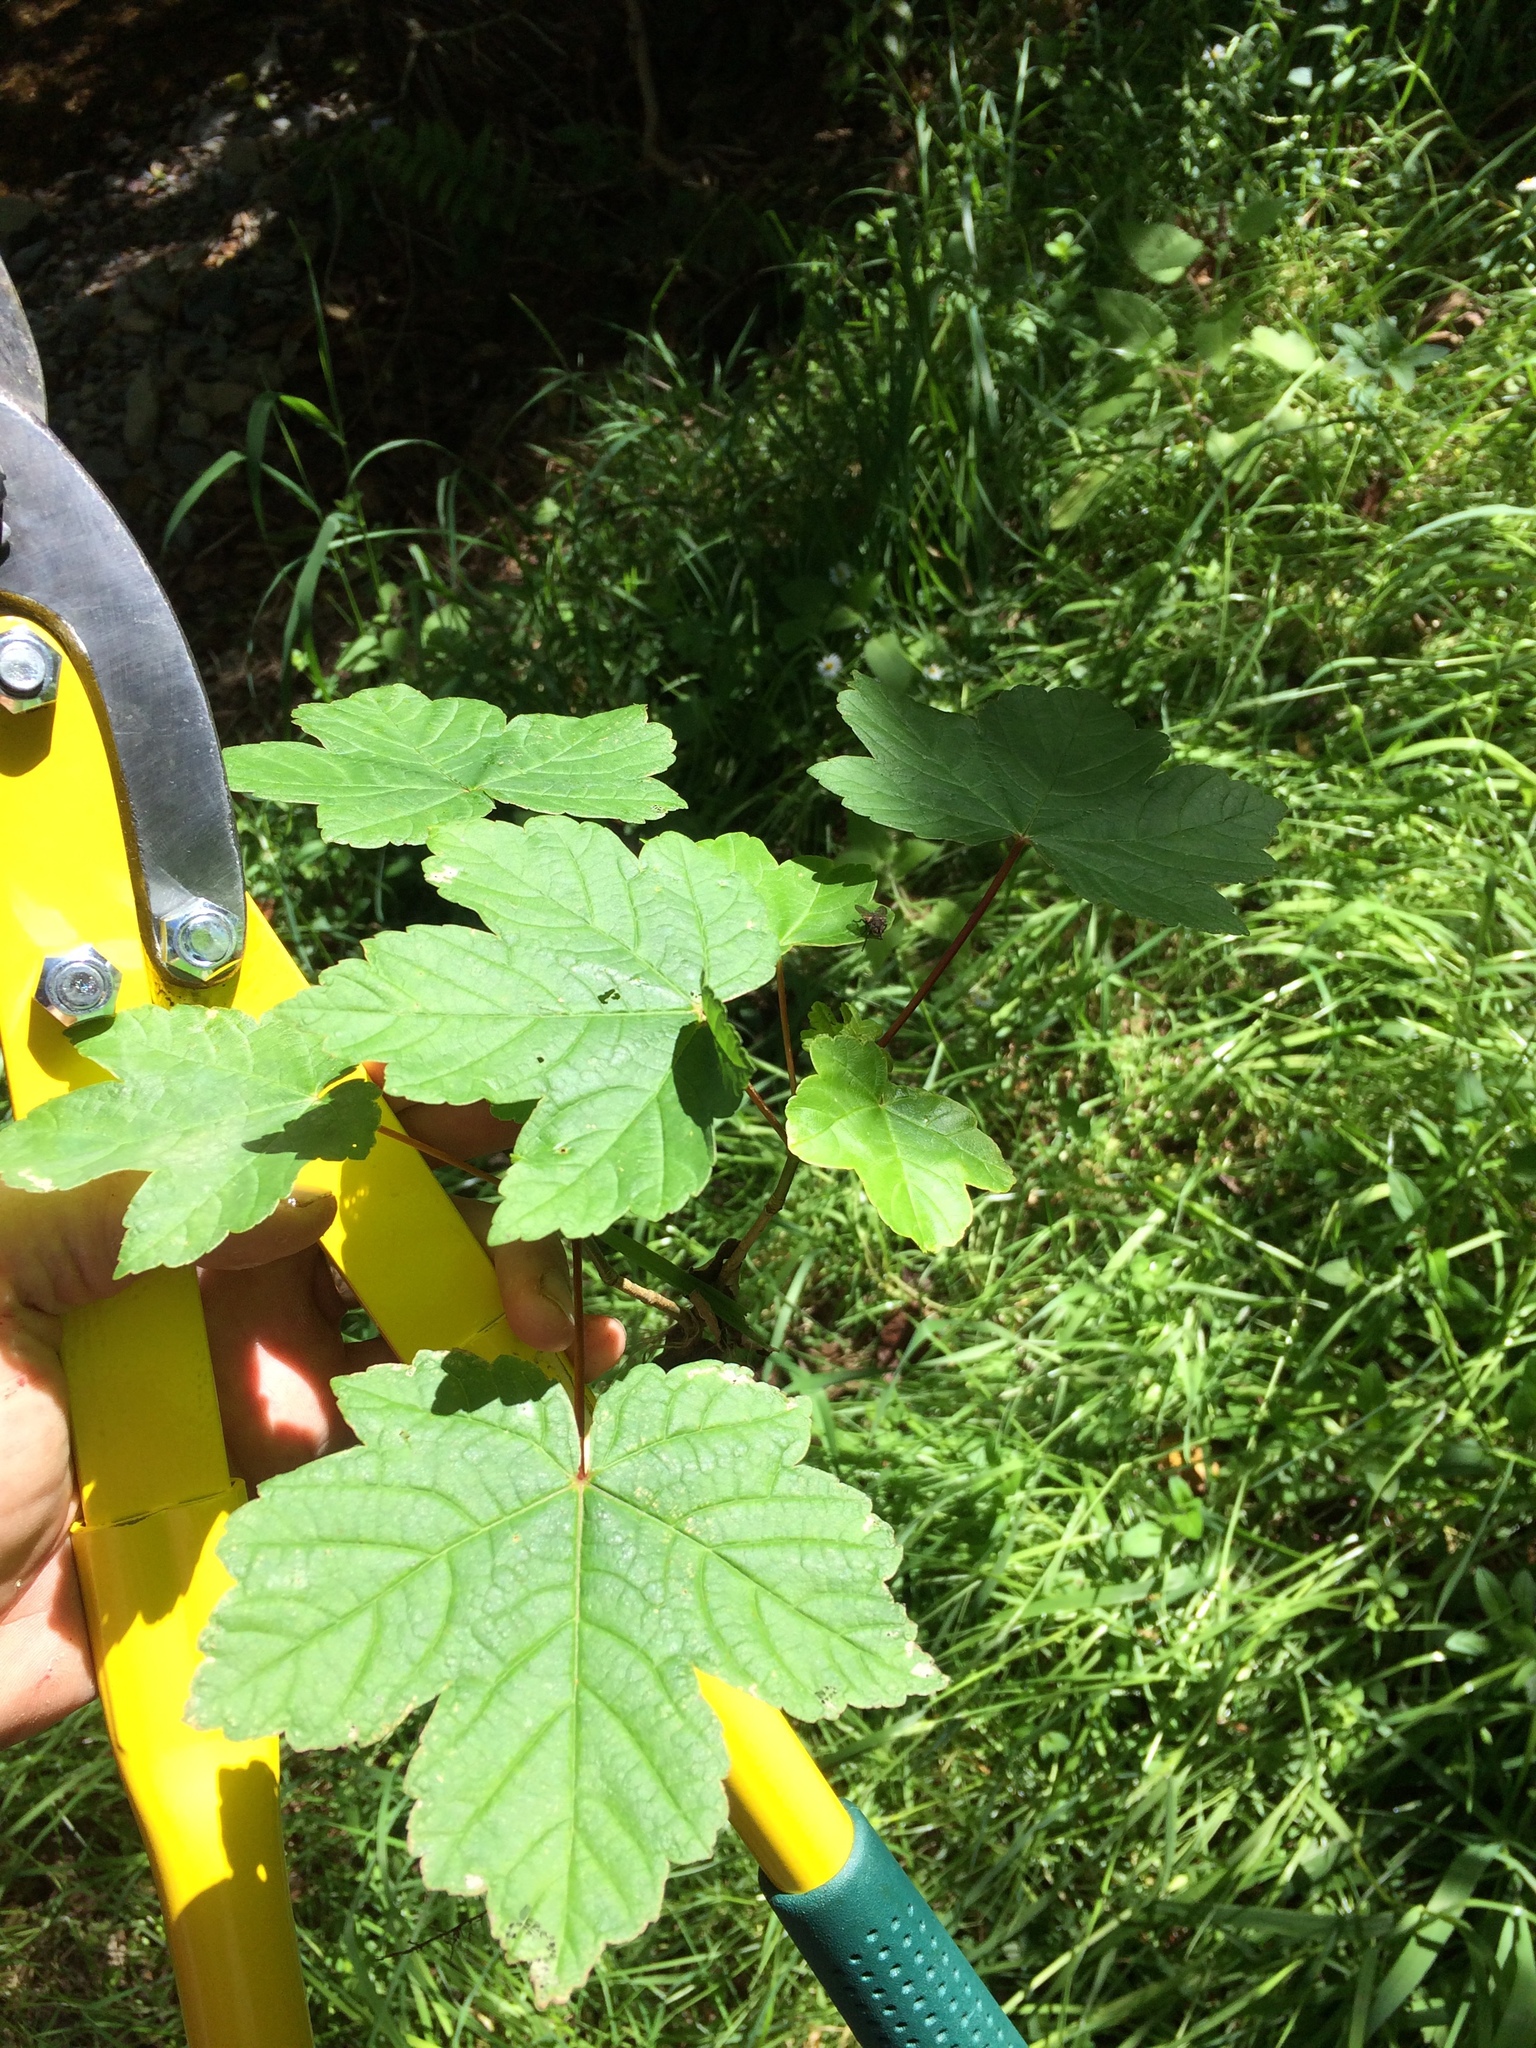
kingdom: Plantae
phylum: Tracheophyta
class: Magnoliopsida
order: Sapindales
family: Sapindaceae
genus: Acer
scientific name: Acer pseudoplatanus
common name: Sycamore
